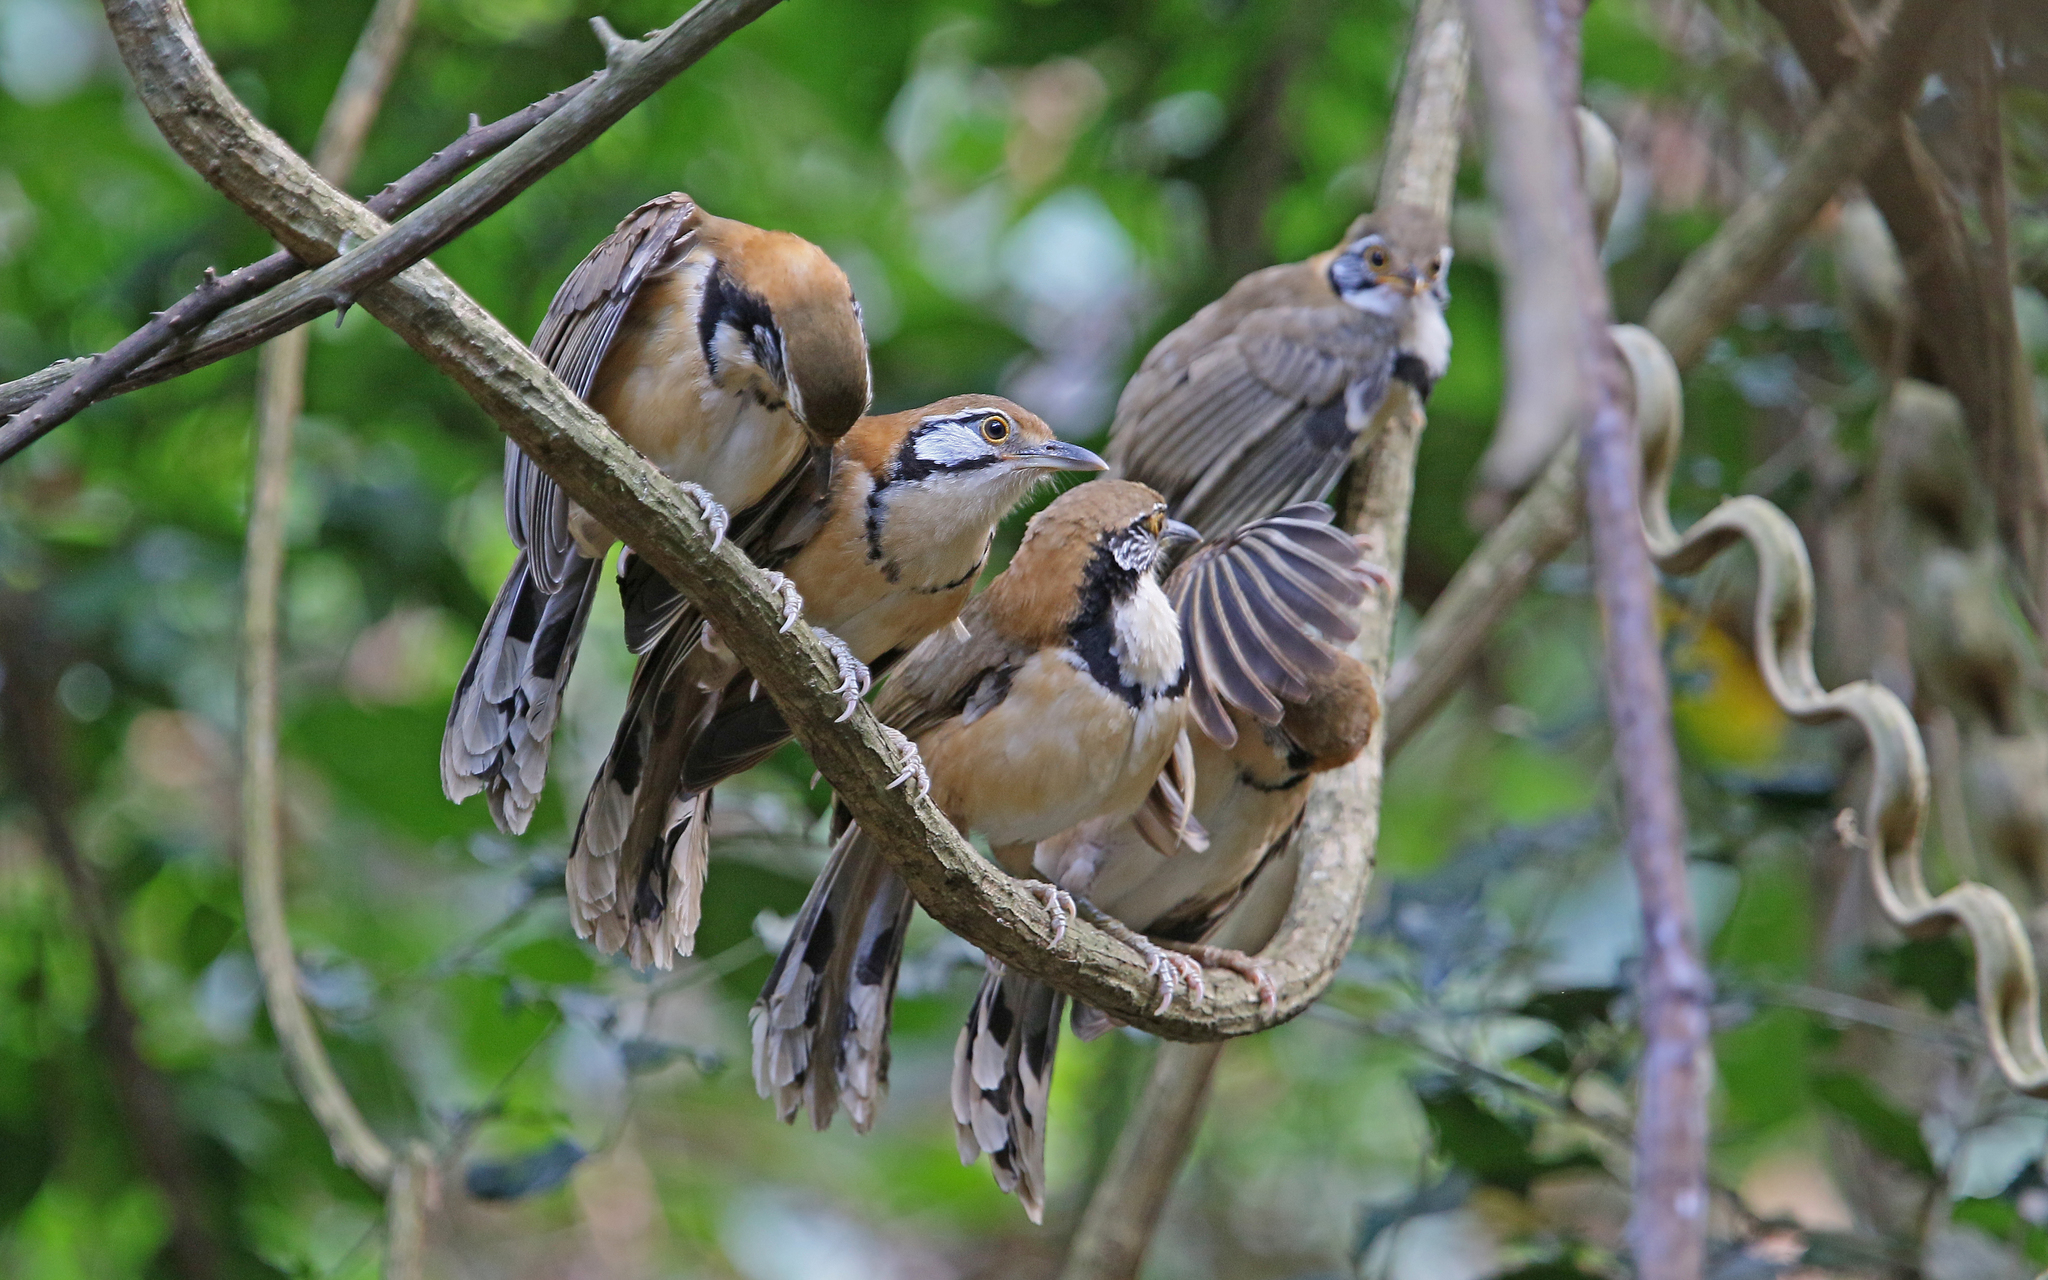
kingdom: Animalia
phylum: Chordata
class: Aves
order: Passeriformes
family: Leiothrichidae
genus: Garrulax
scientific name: Garrulax pectoralis
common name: Greater necklaced laughingthrush
